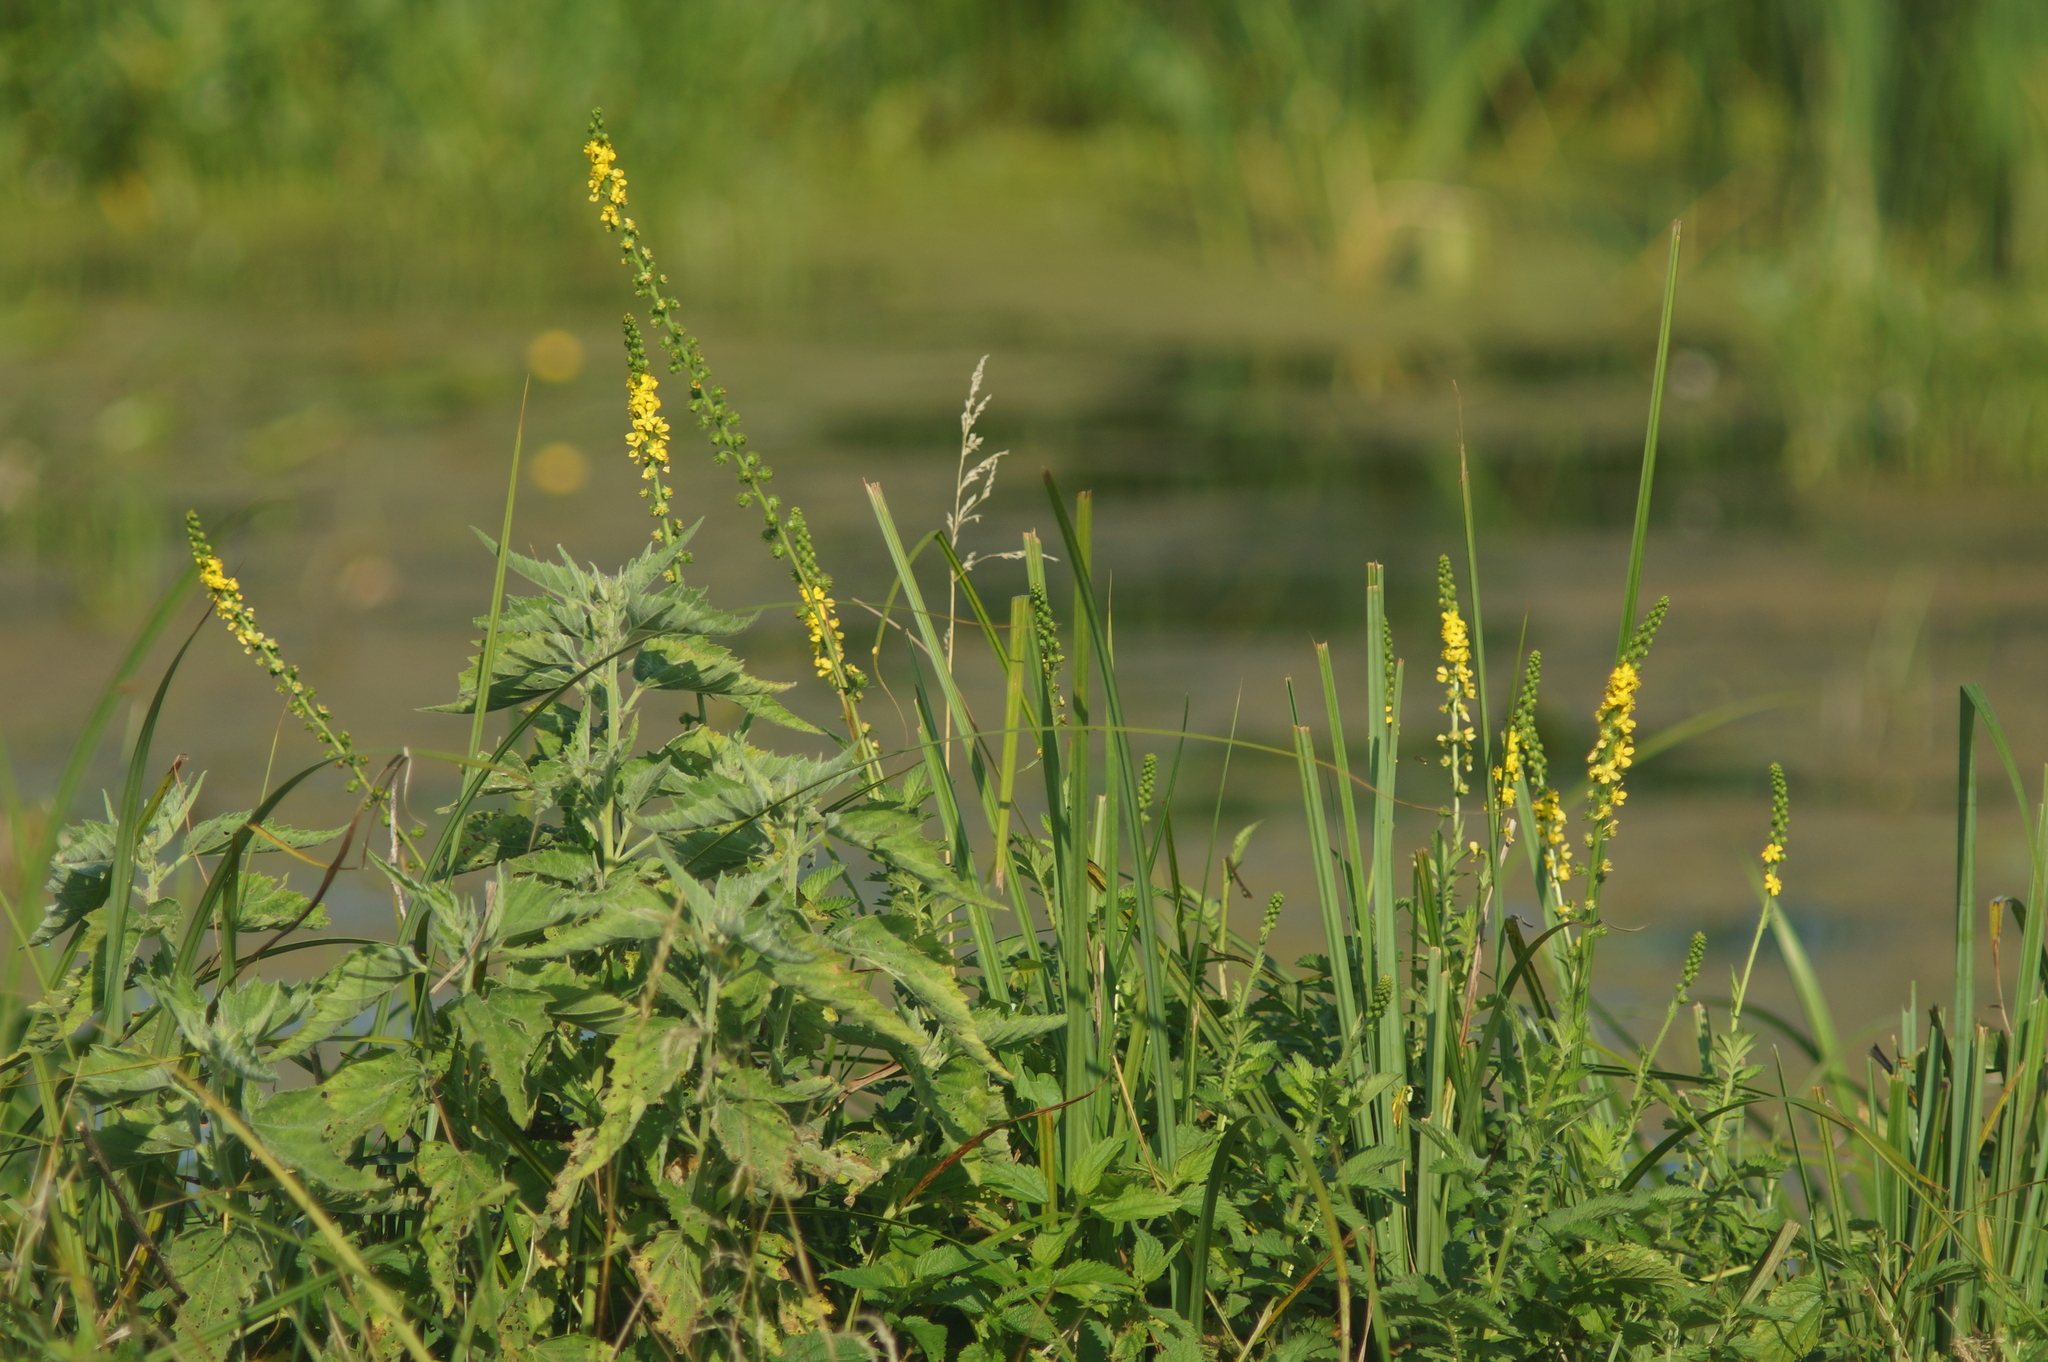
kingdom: Plantae
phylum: Tracheophyta
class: Magnoliopsida
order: Rosales
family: Rosaceae
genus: Agrimonia
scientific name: Agrimonia eupatoria
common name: Agrimony
